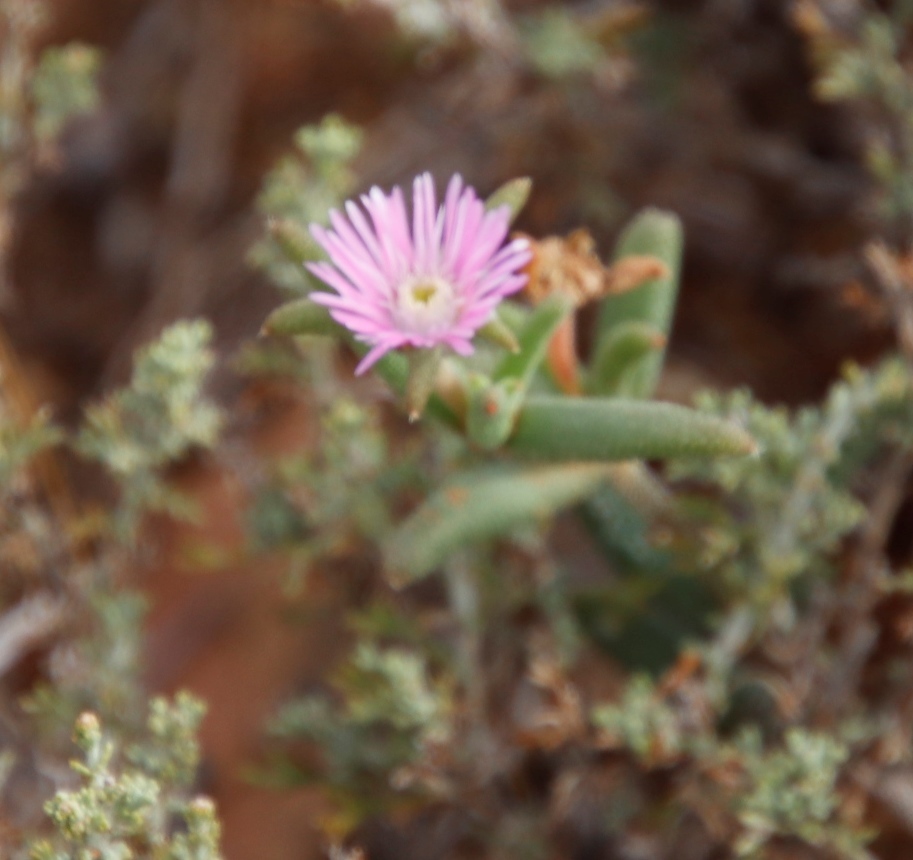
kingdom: Plantae
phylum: Tracheophyta
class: Magnoliopsida
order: Caryophyllales
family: Aizoaceae
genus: Trichodiadema
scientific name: Trichodiadema setuliferum
